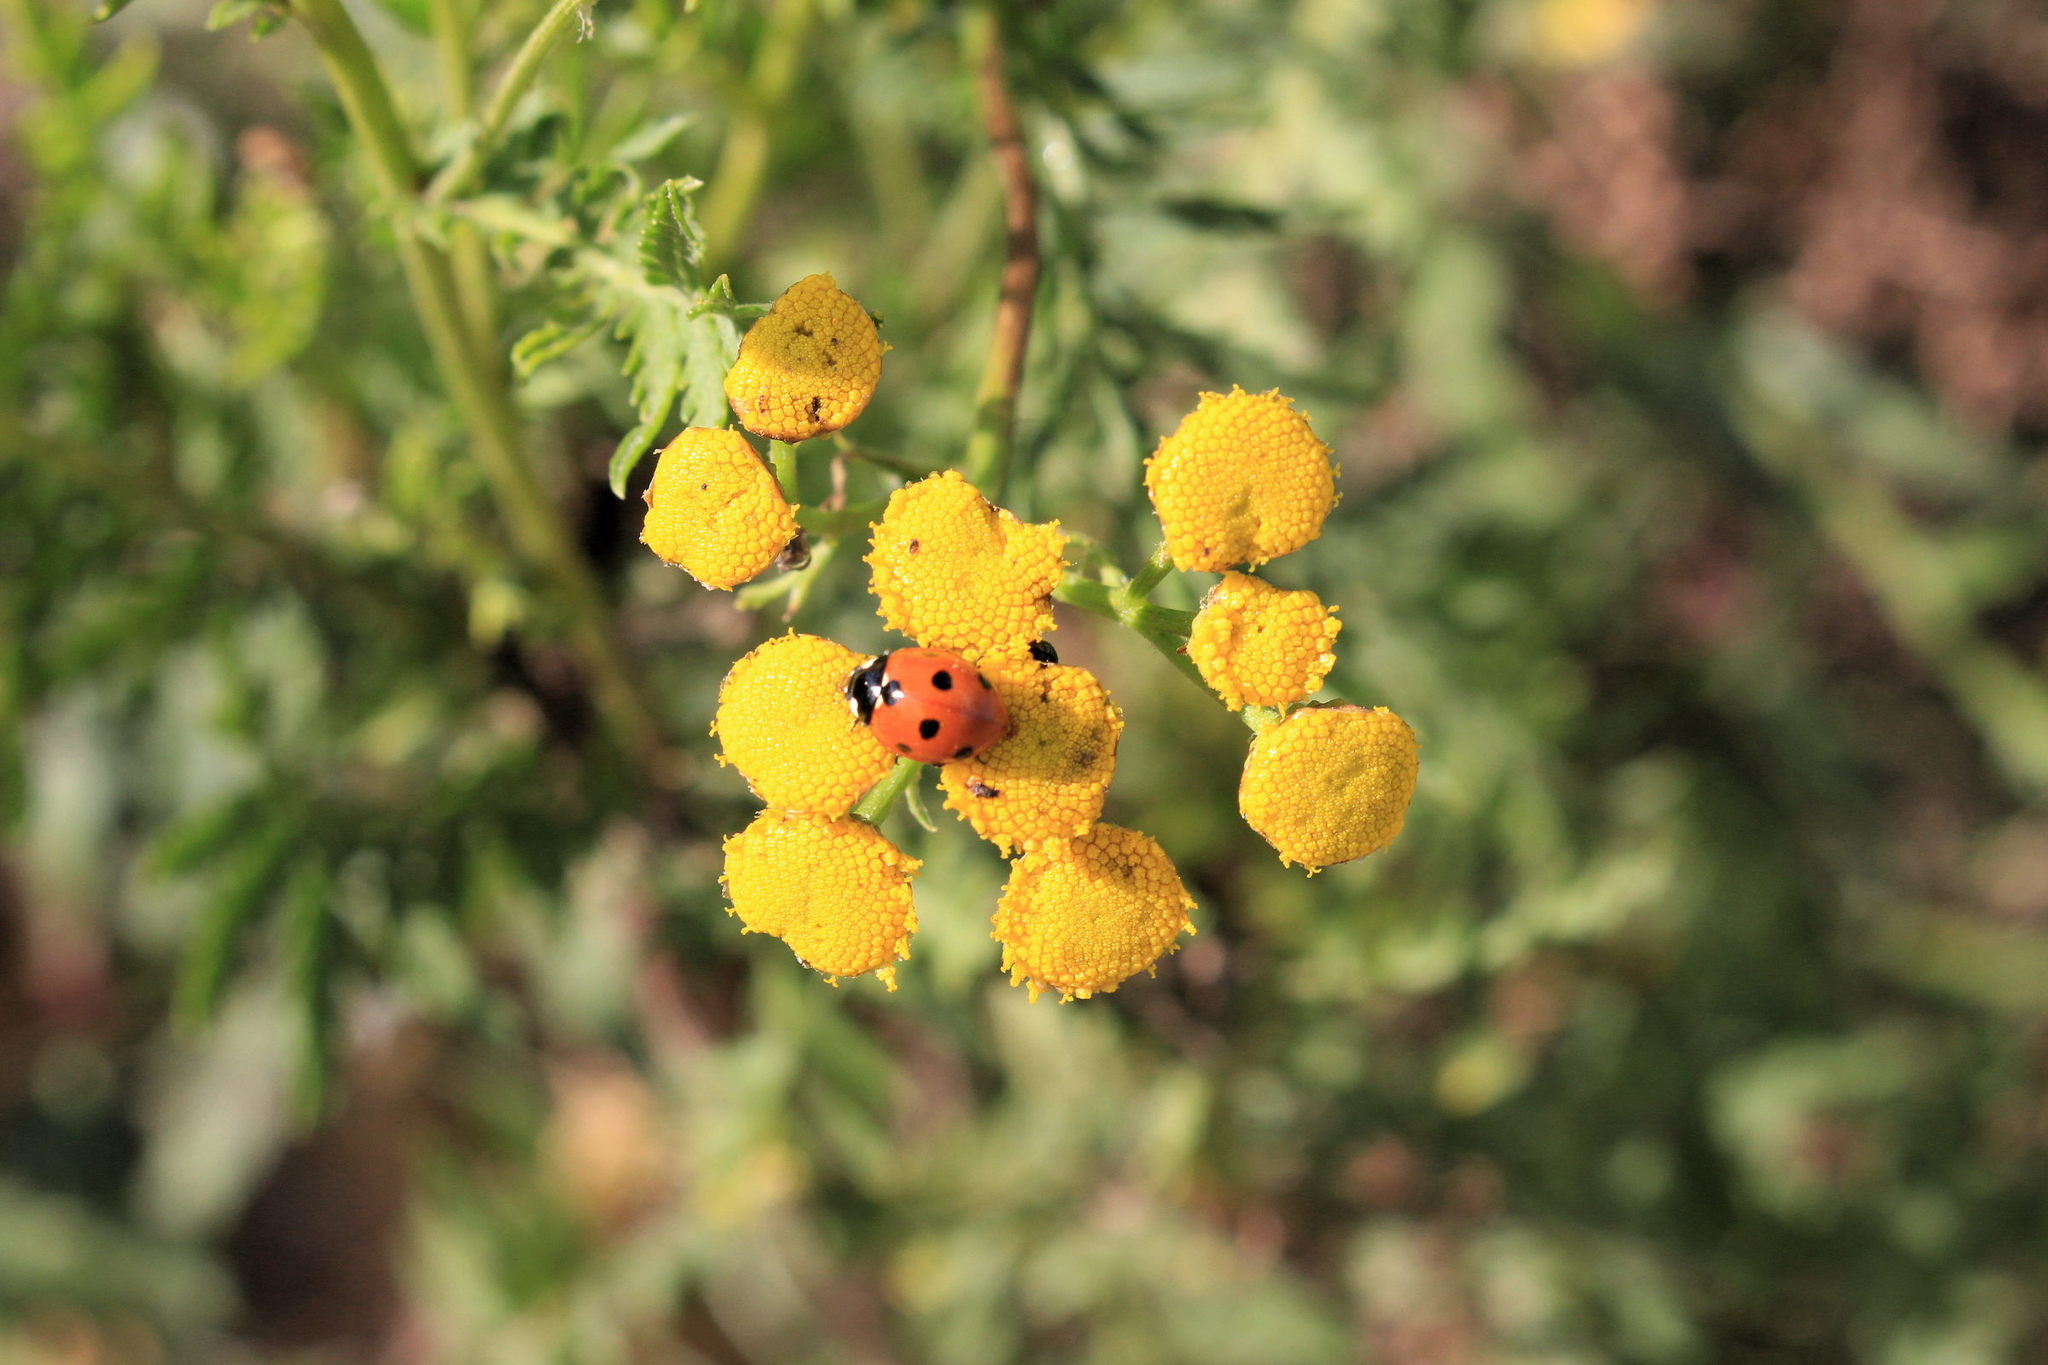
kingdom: Animalia
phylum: Arthropoda
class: Insecta
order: Coleoptera
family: Coccinellidae
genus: Coccinella
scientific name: Coccinella septempunctata
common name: Sevenspotted lady beetle
